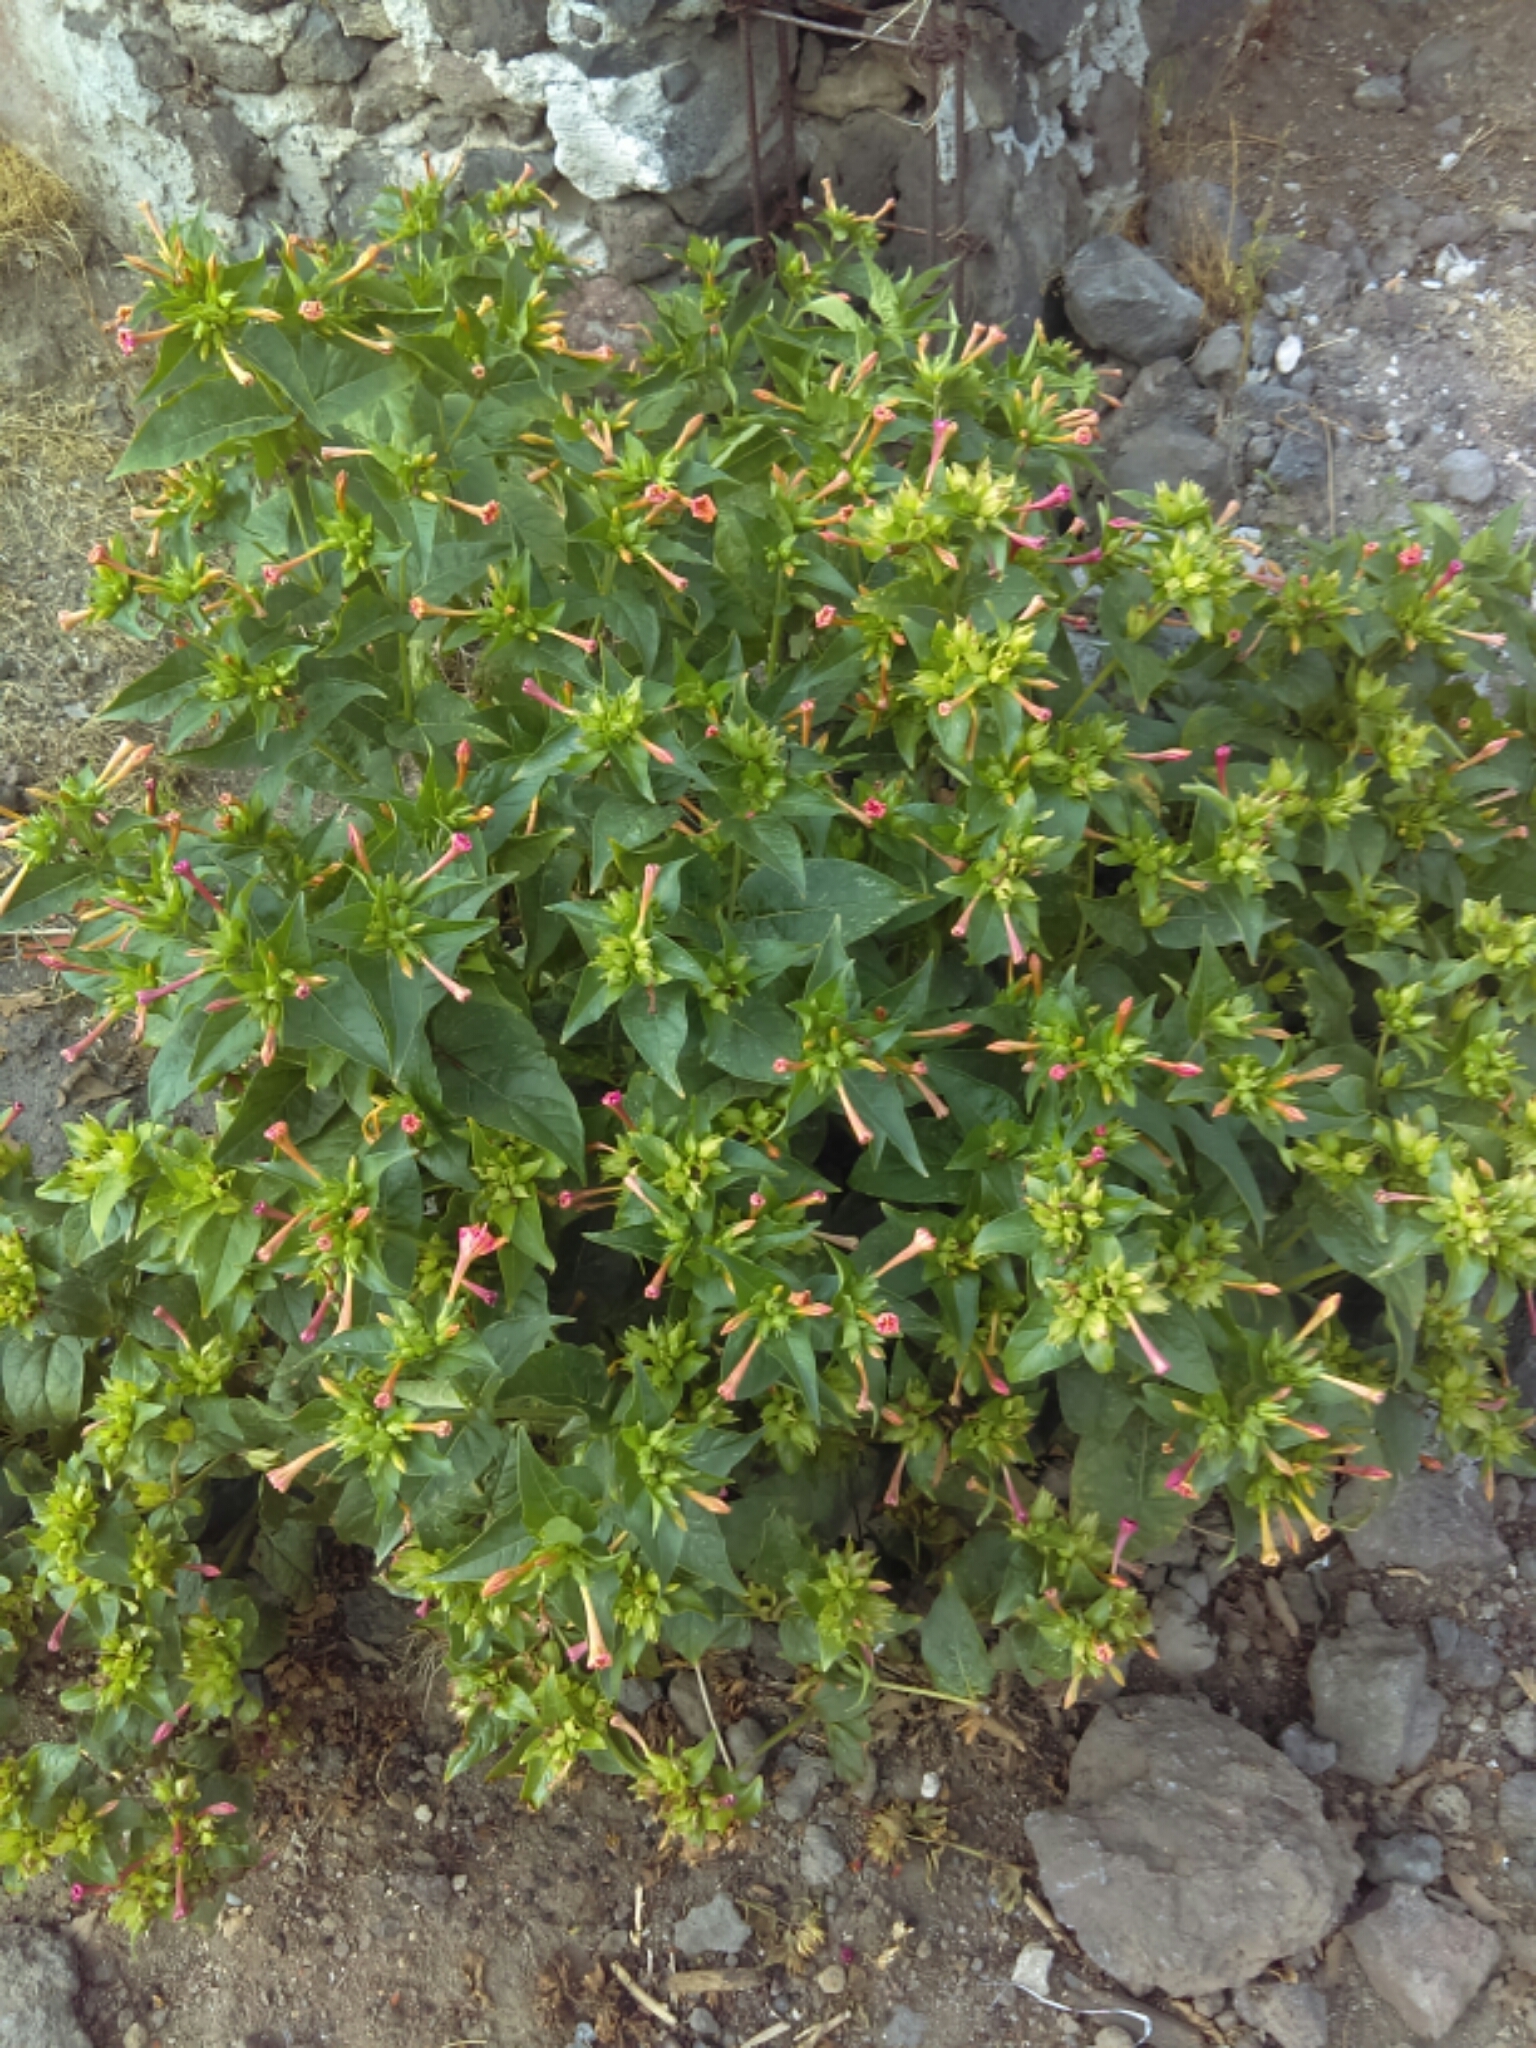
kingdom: Plantae
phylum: Tracheophyta
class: Magnoliopsida
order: Caryophyllales
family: Nyctaginaceae
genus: Mirabilis
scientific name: Mirabilis jalapa
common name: Marvel-of-peru
